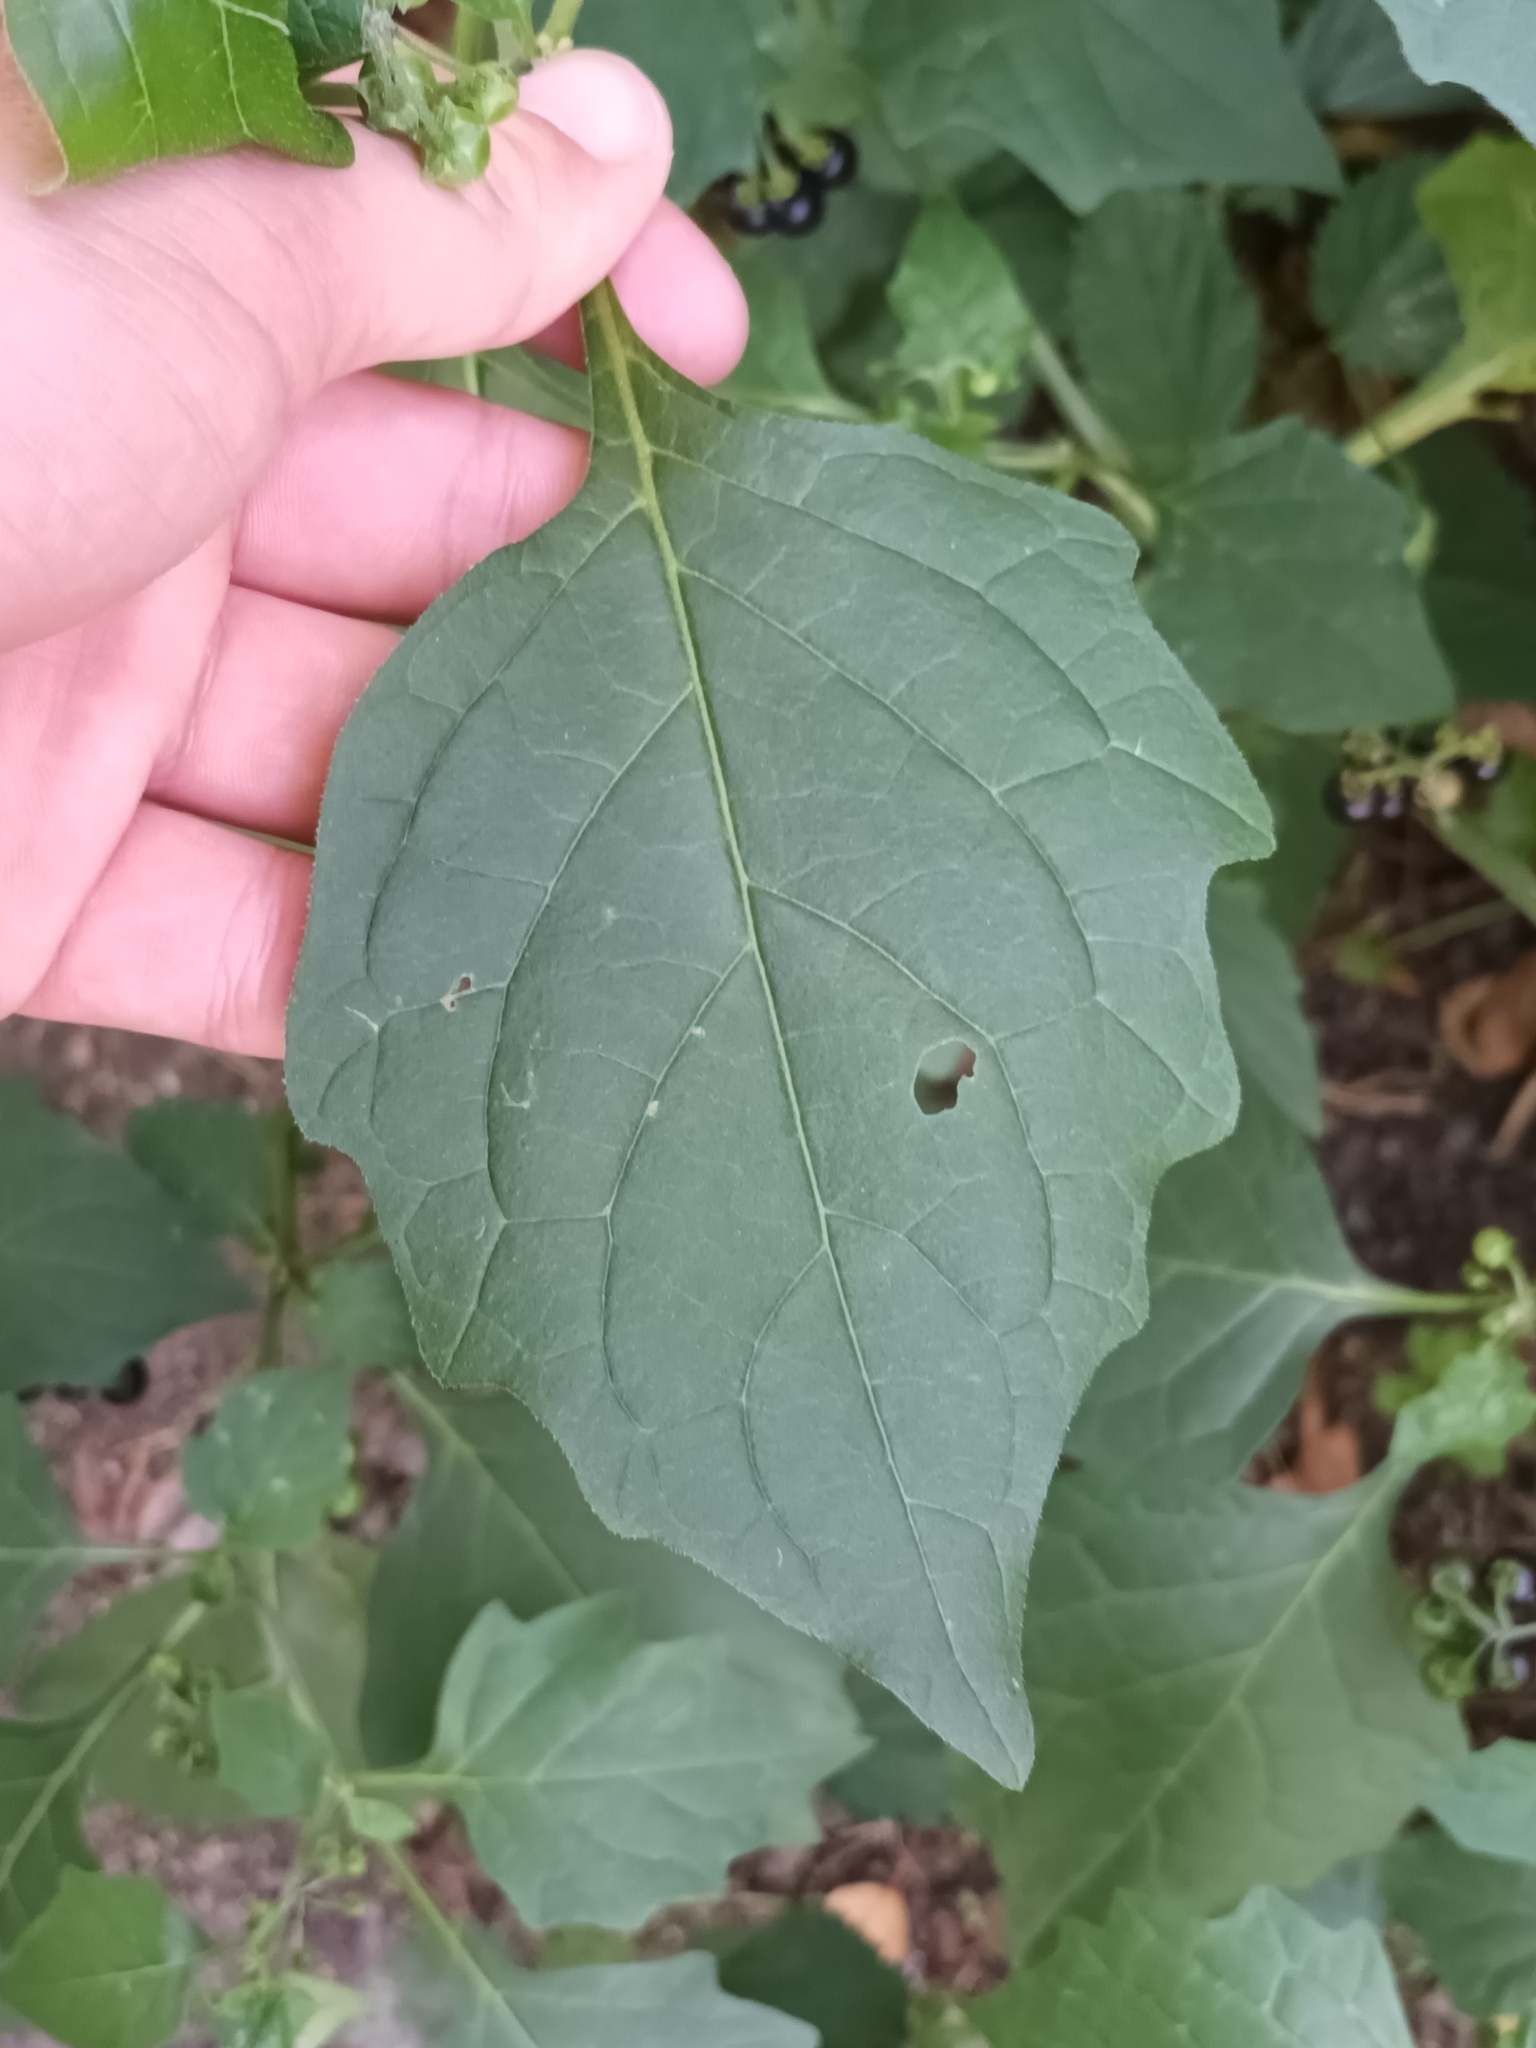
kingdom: Plantae
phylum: Tracheophyta
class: Magnoliopsida
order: Solanales
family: Solanaceae
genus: Solanum
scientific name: Solanum nigrum
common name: Black nightshade
